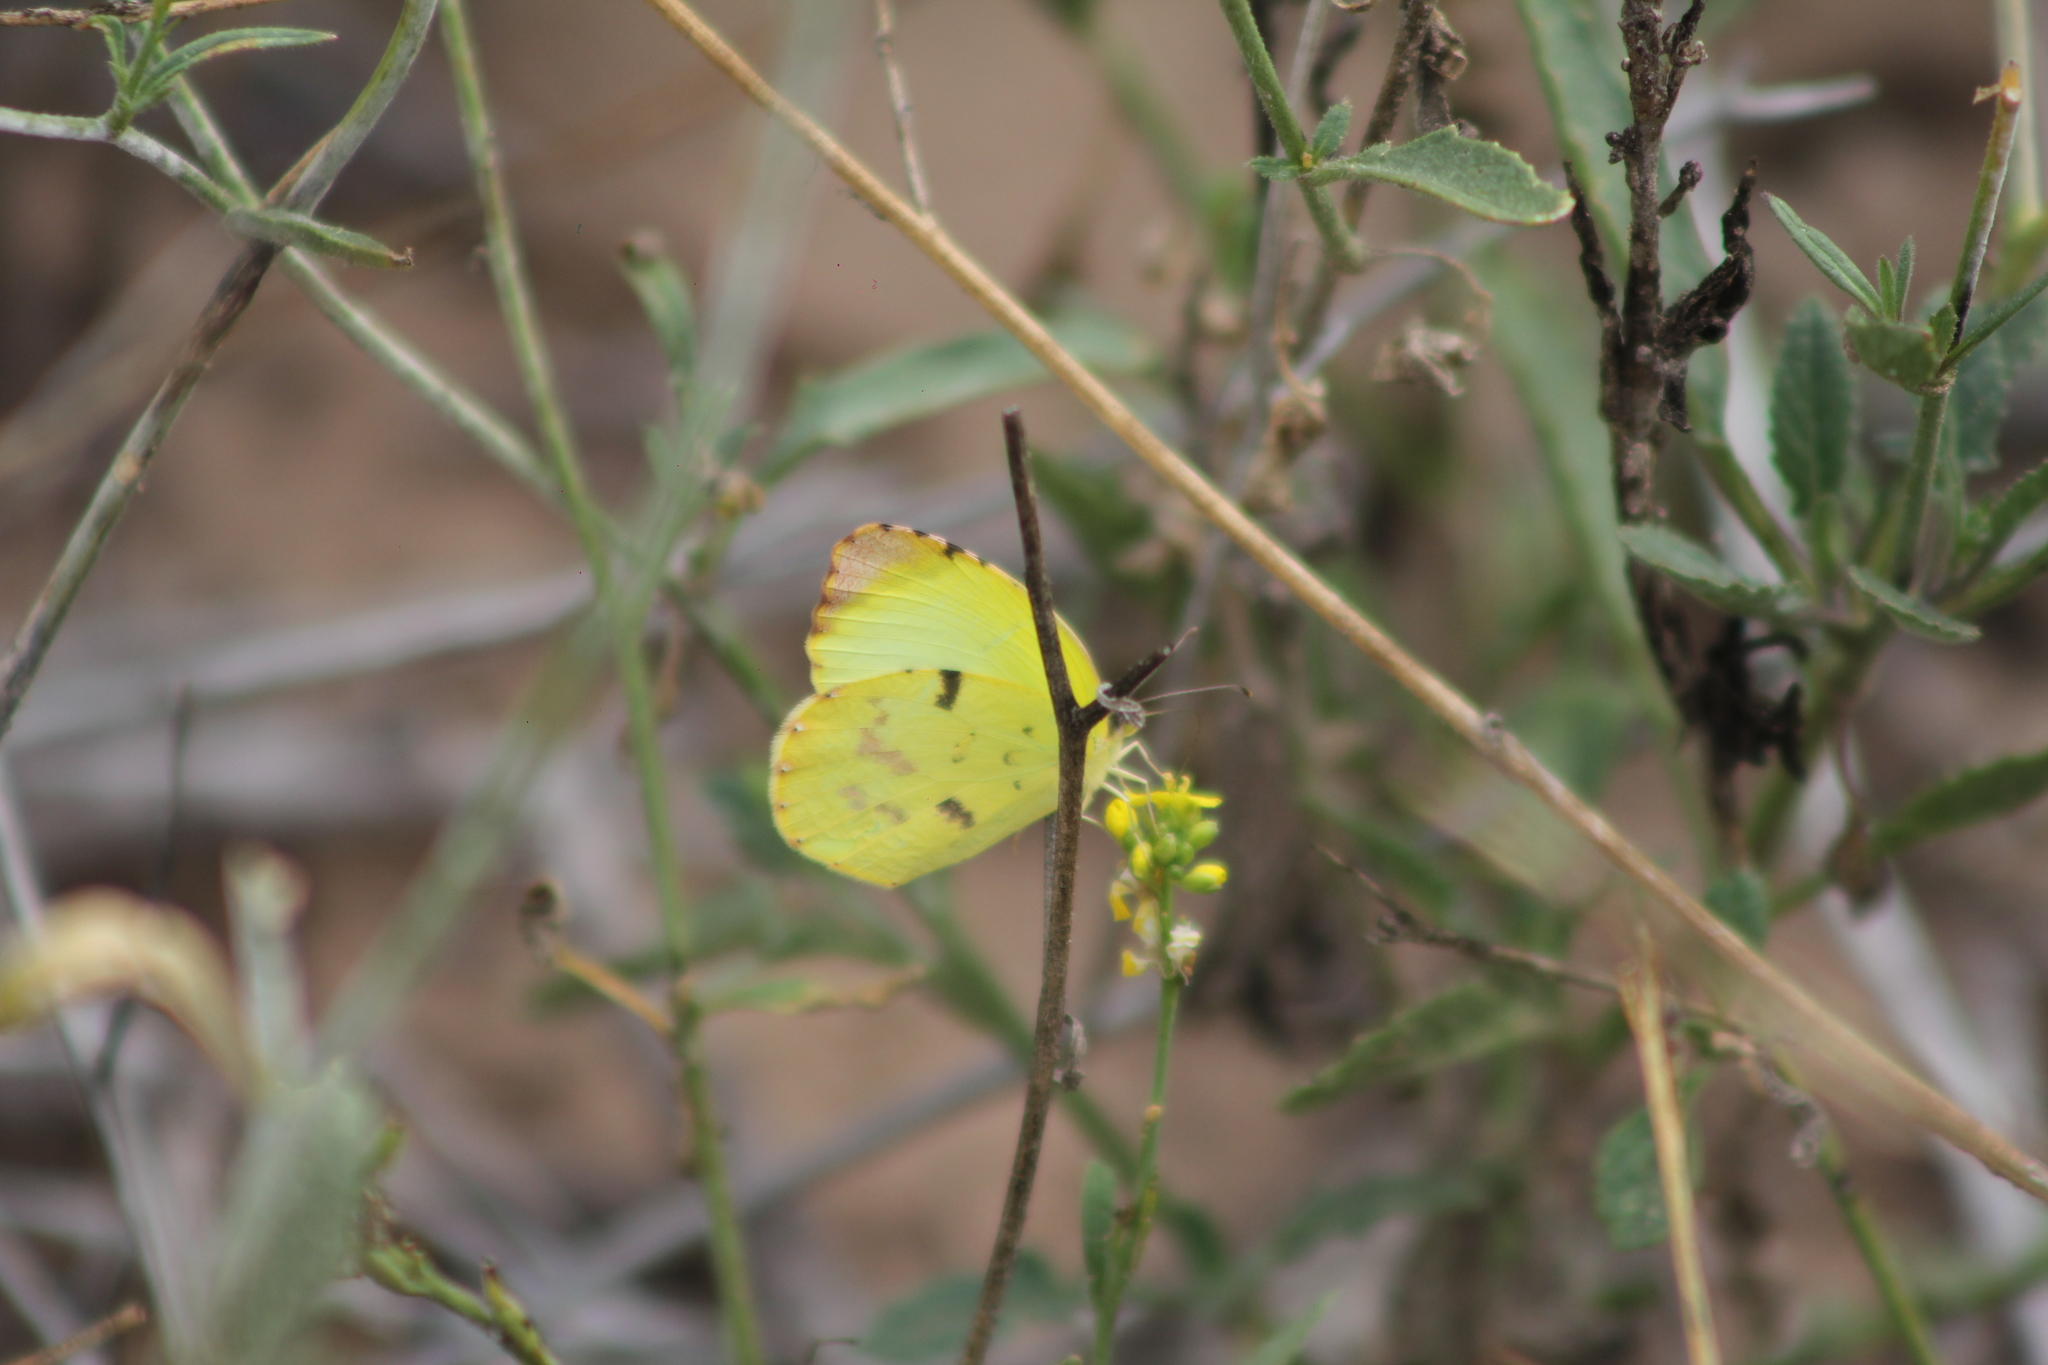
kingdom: Animalia
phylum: Arthropoda
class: Insecta
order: Lepidoptera
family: Pieridae
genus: Teriocolias
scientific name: Teriocolias
